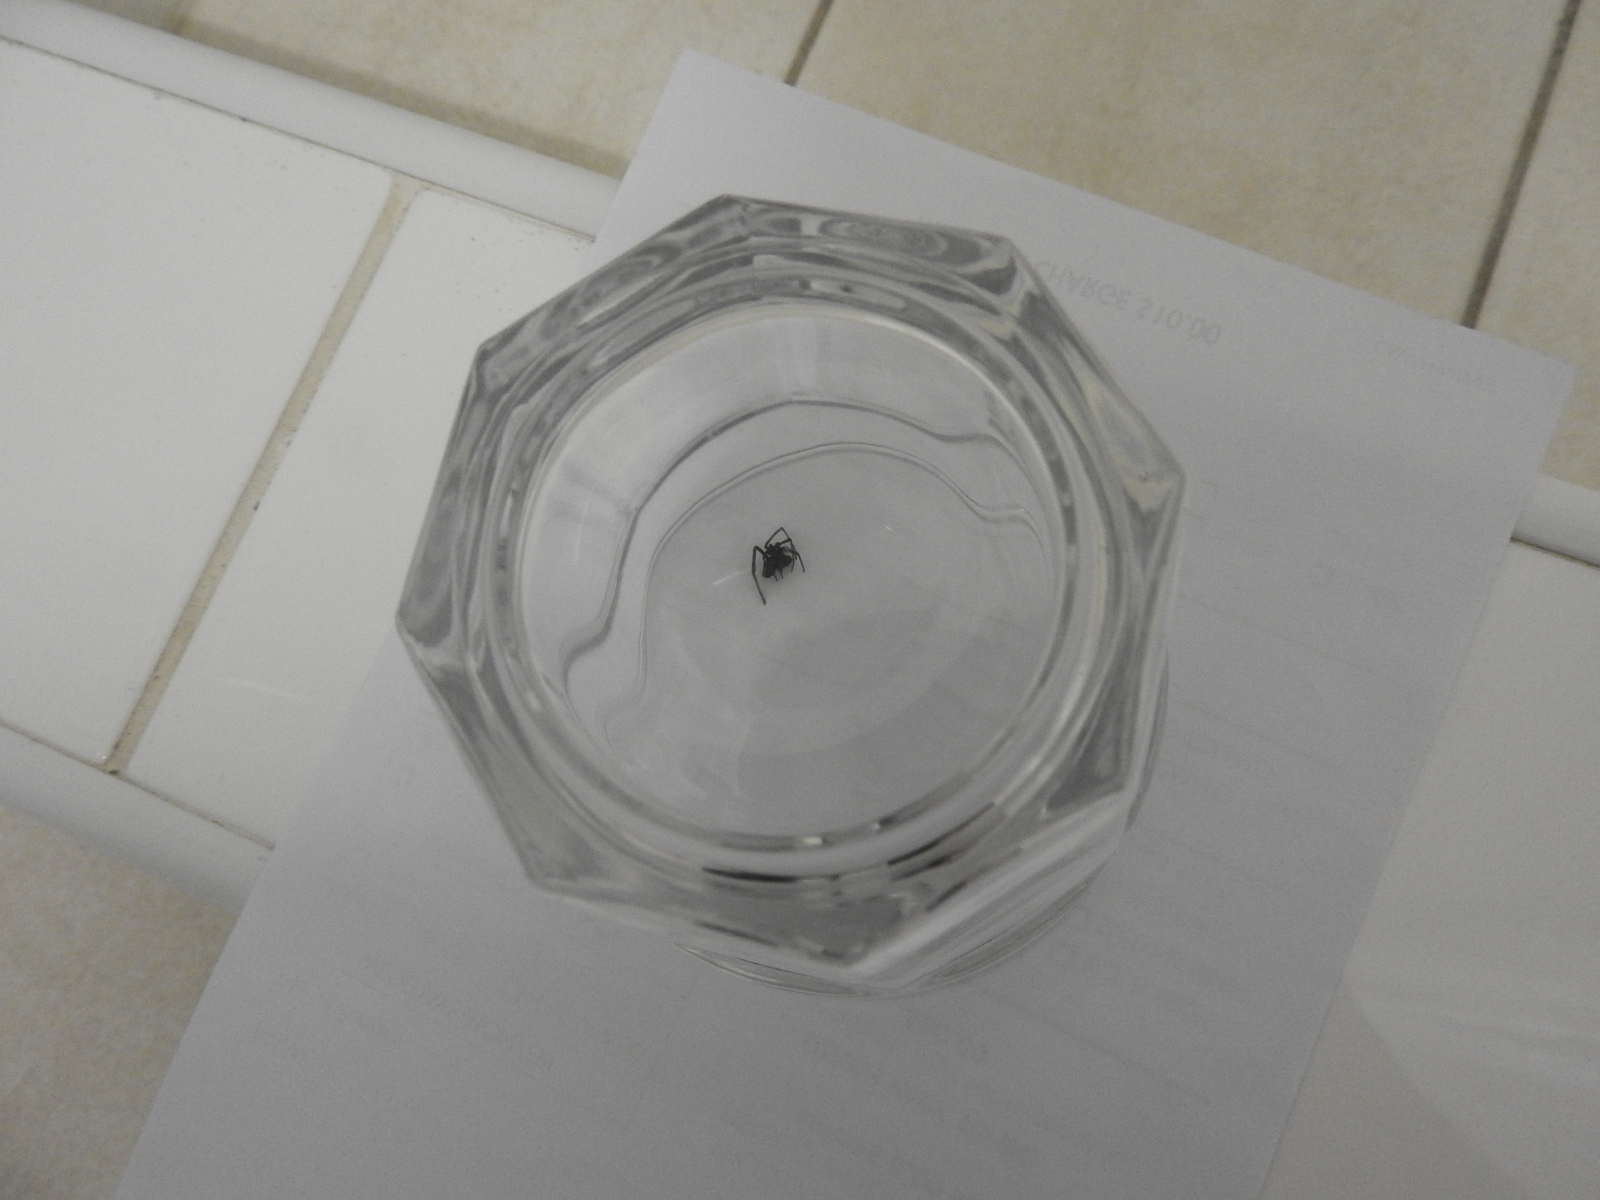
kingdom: Animalia
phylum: Arthropoda
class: Arachnida
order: Araneae
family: Theridiidae
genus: Latrodectus
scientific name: Latrodectus hasselti
